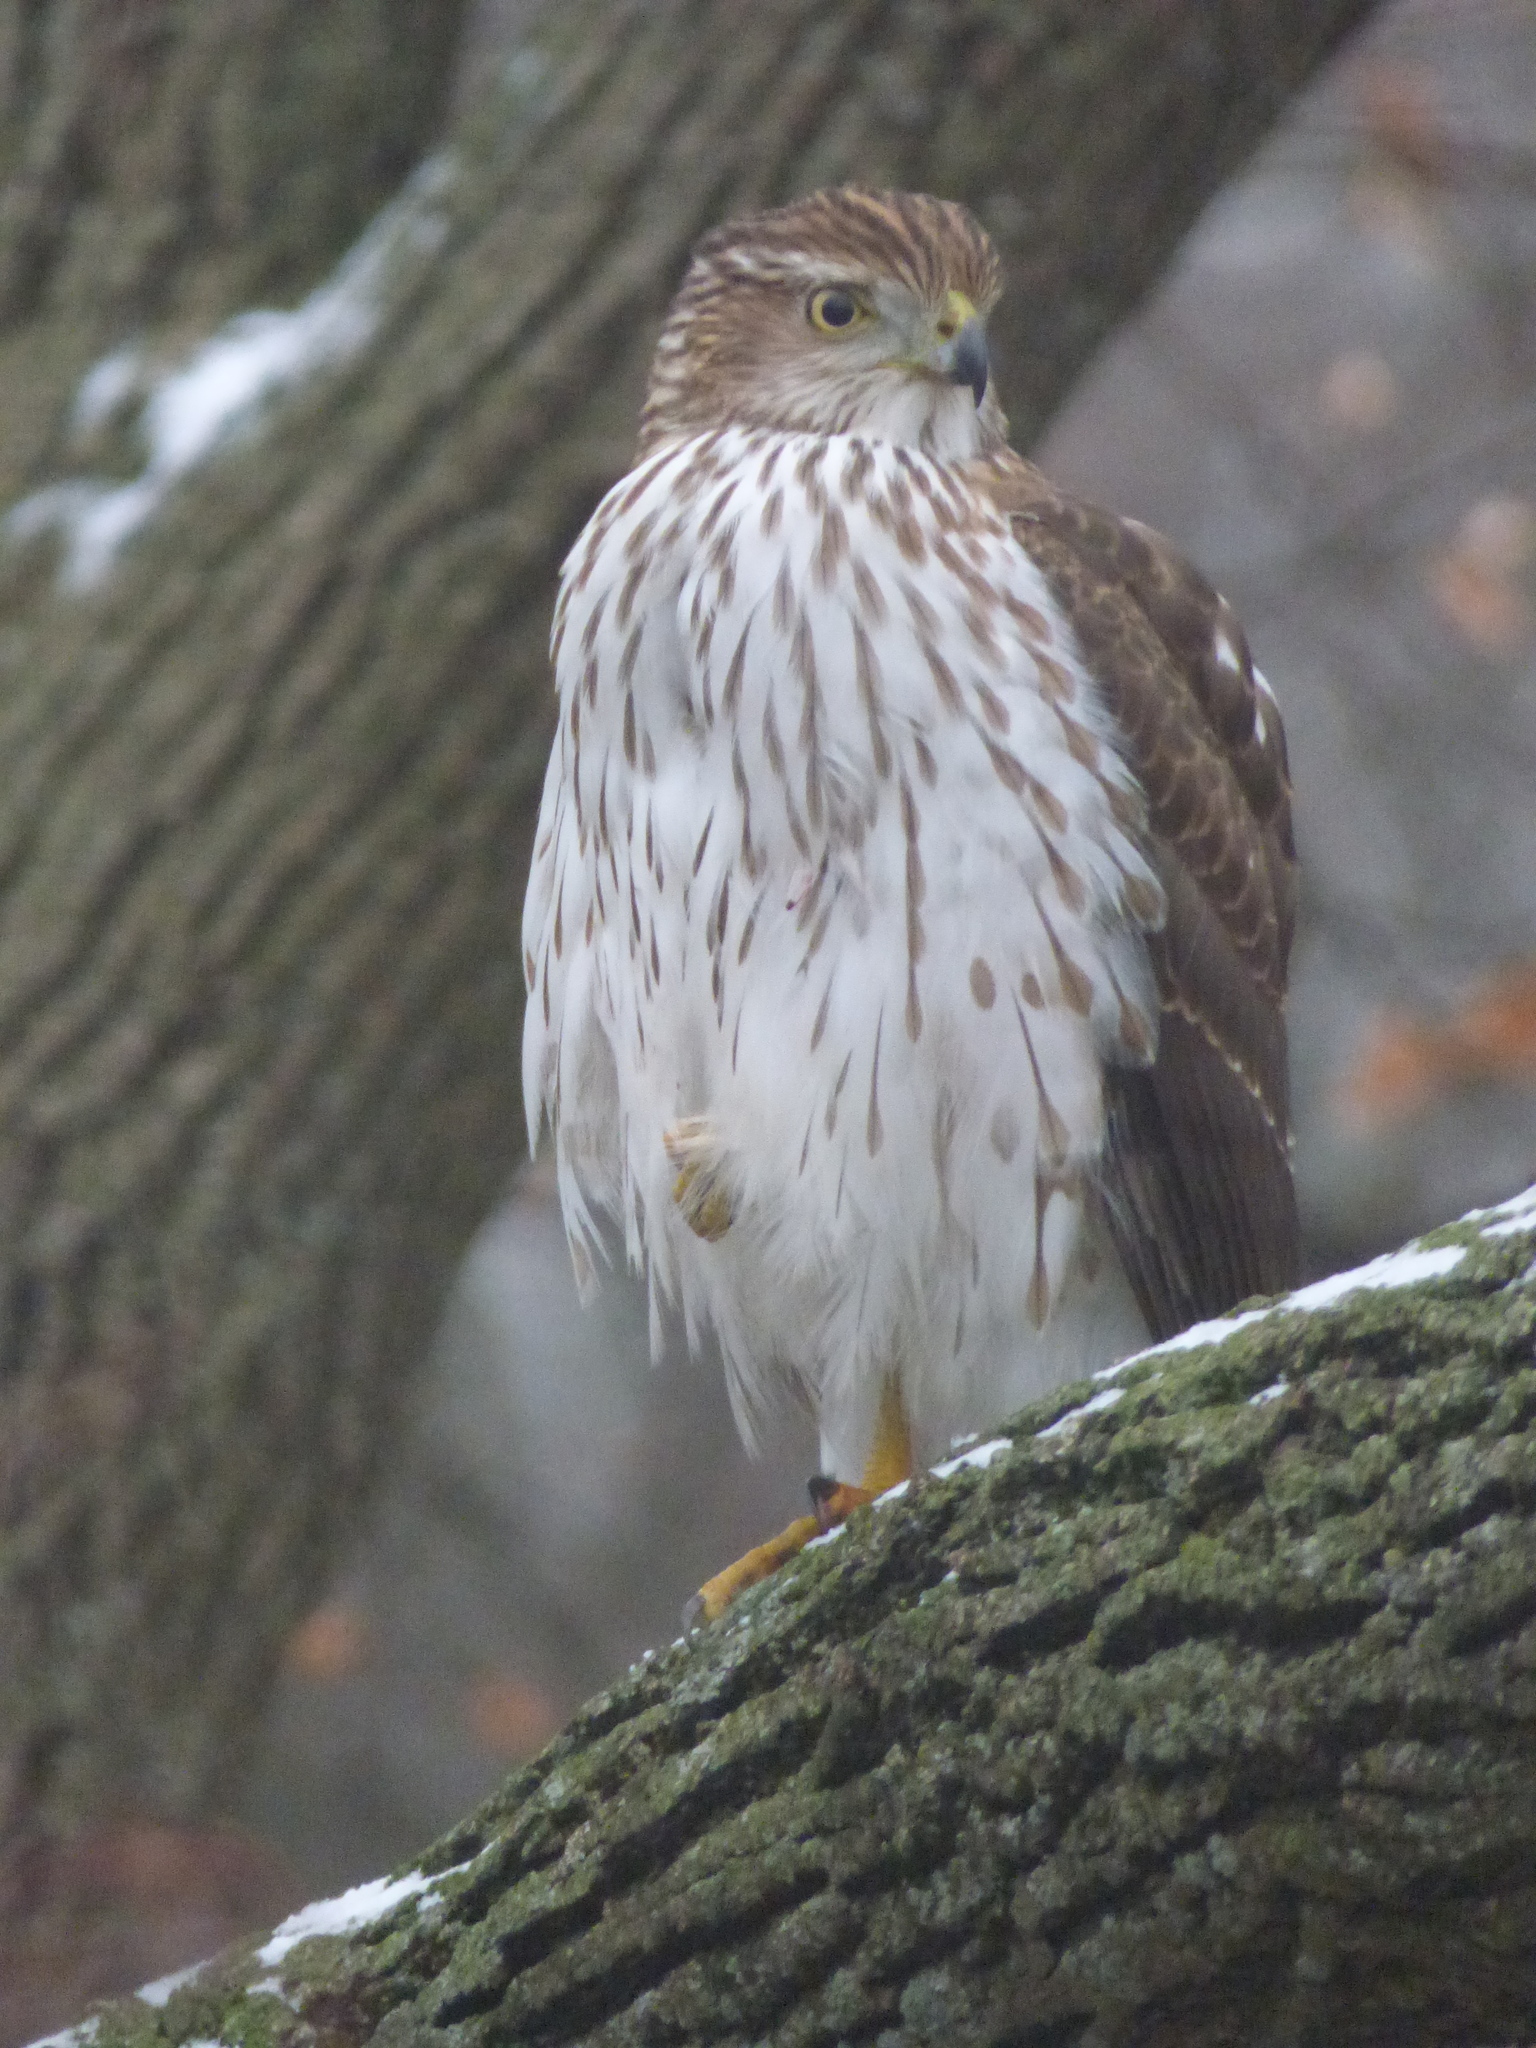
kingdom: Animalia
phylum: Chordata
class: Aves
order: Accipitriformes
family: Accipitridae
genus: Accipiter
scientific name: Accipiter cooperii
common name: Cooper's hawk
